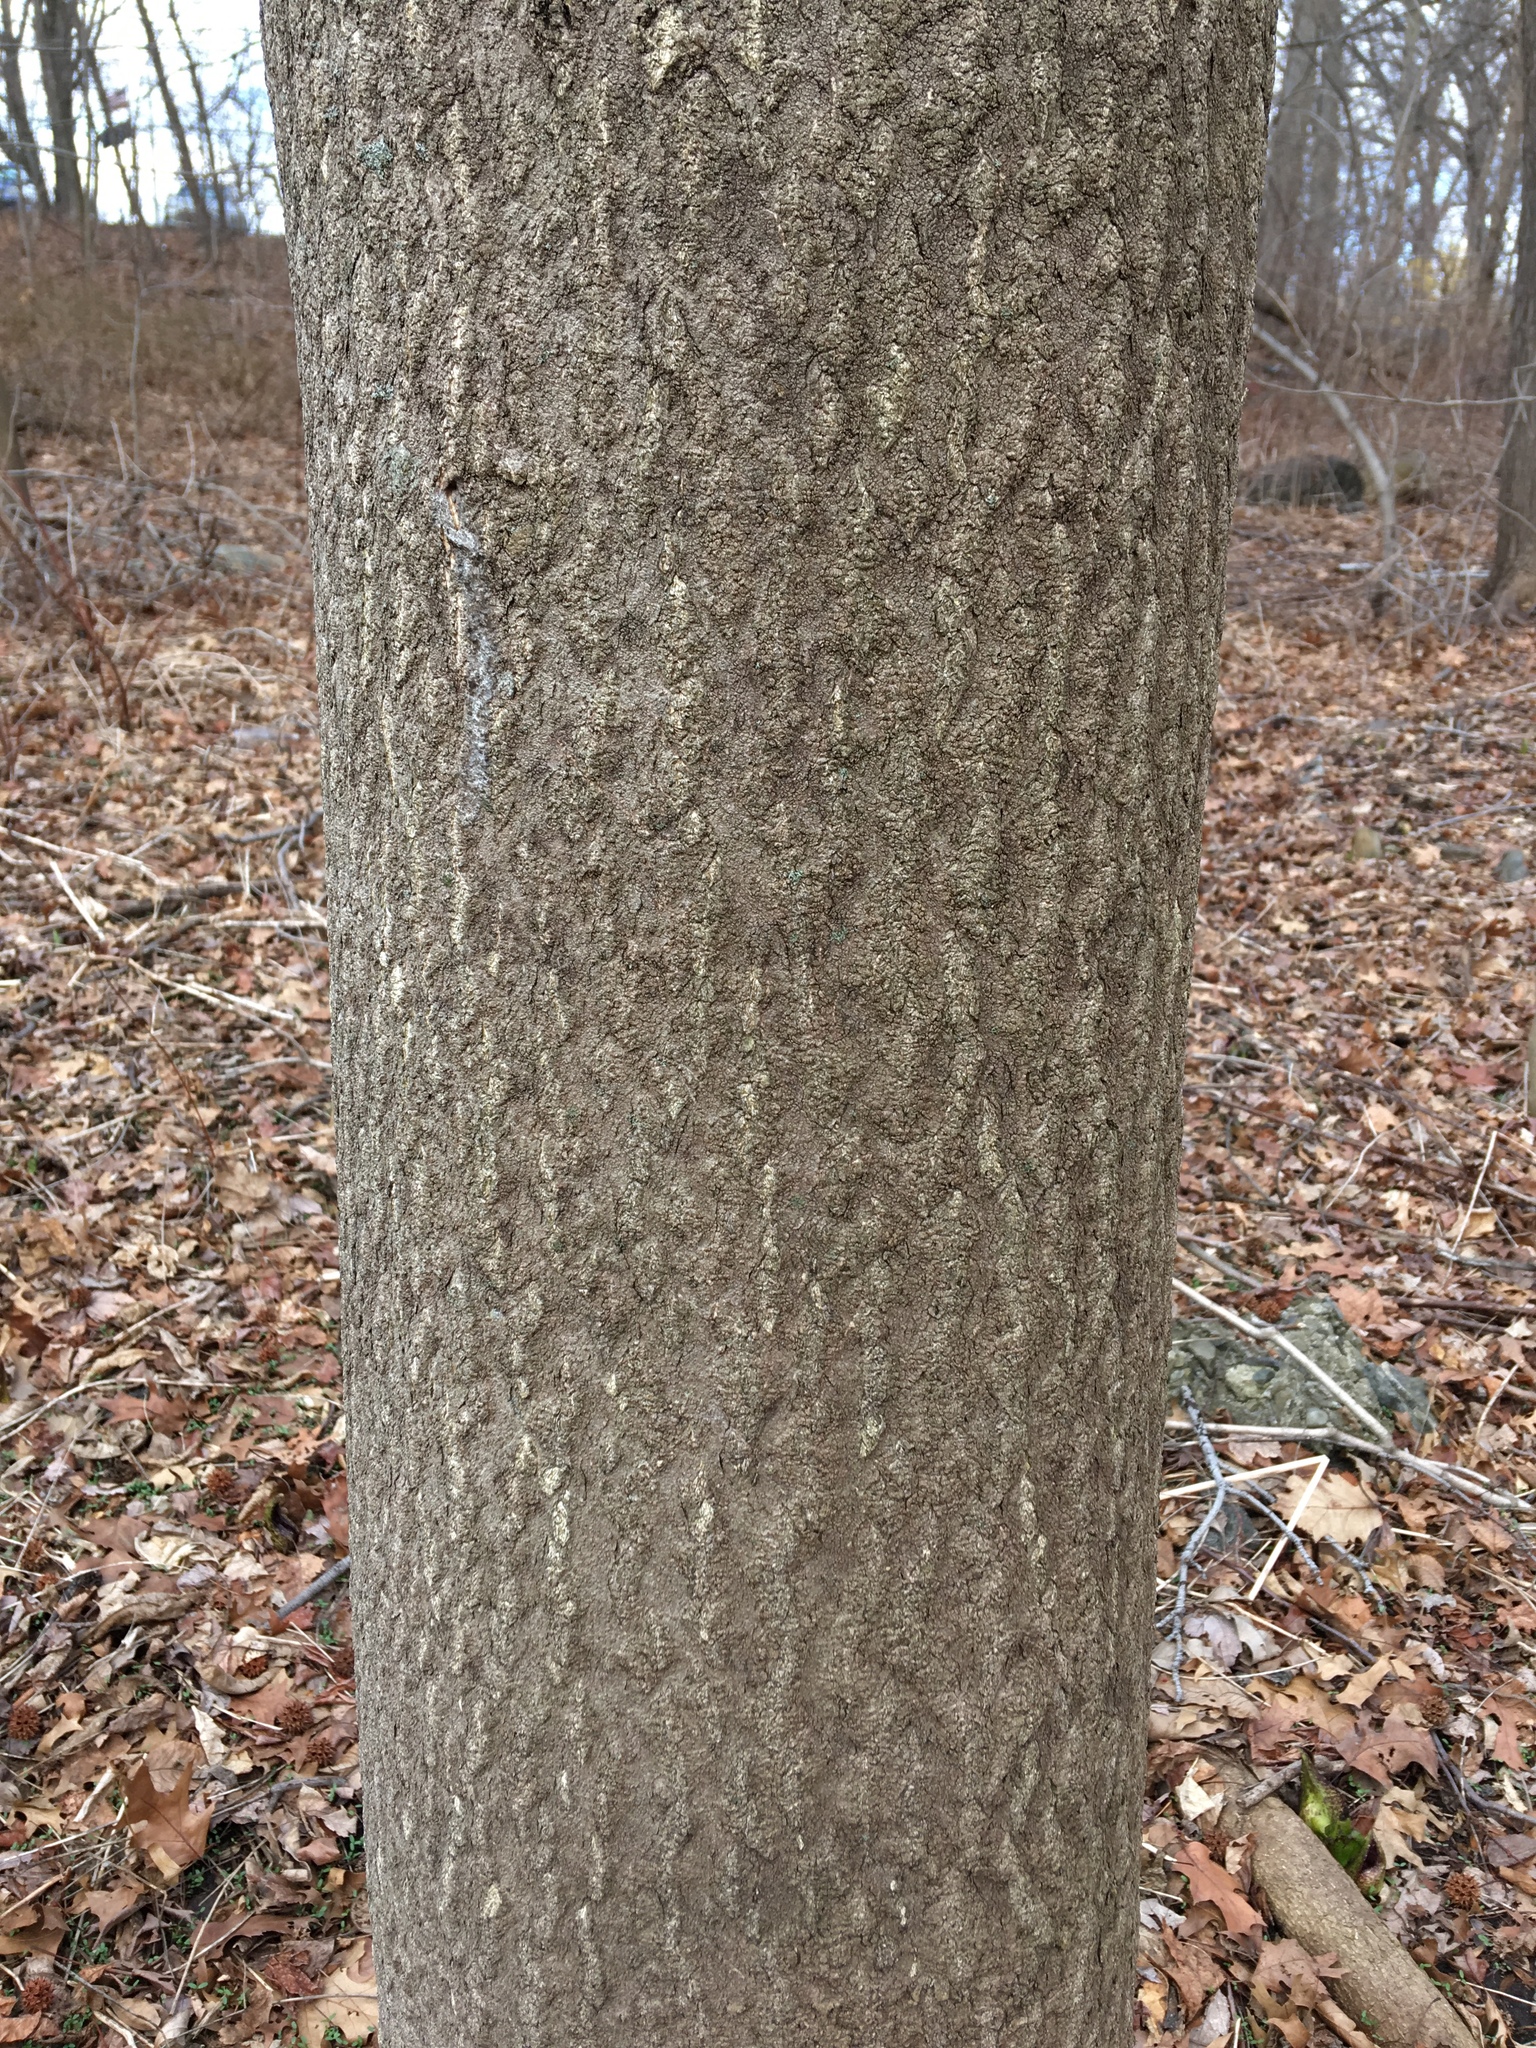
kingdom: Plantae
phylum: Tracheophyta
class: Magnoliopsida
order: Sapindales
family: Simaroubaceae
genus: Ailanthus
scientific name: Ailanthus altissima
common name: Tree-of-heaven
